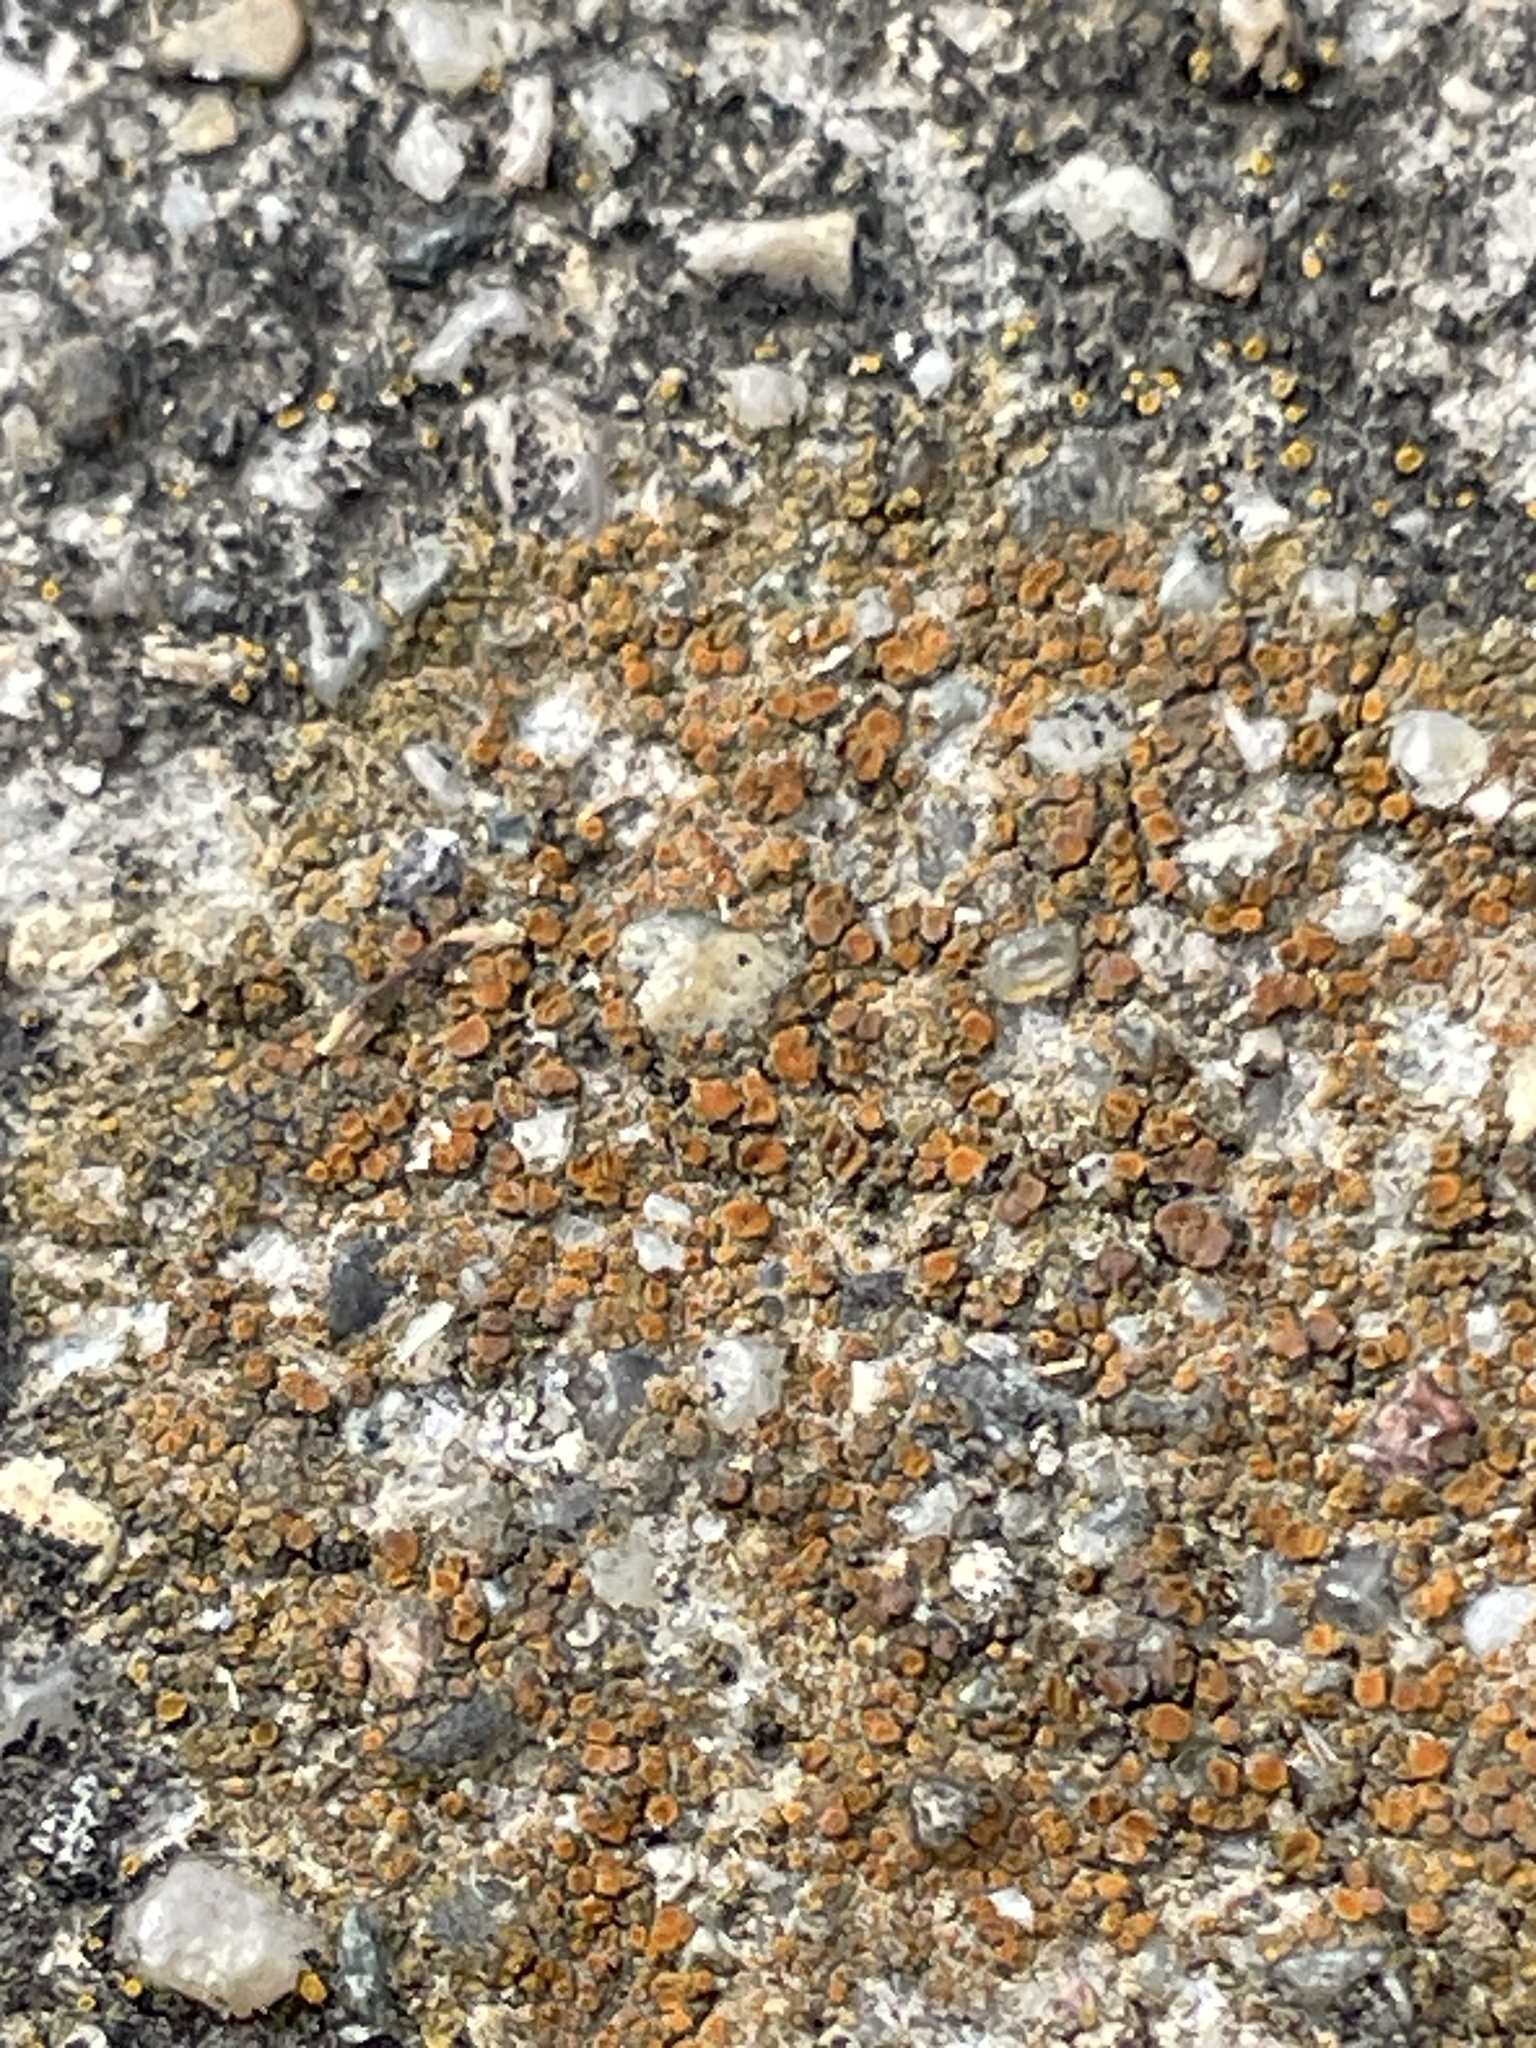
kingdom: Fungi
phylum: Ascomycota
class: Lecanoromycetes
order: Teloschistales
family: Teloschistaceae
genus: Xanthocarpia
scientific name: Xanthocarpia feracissima
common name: Sidewalk firedot
